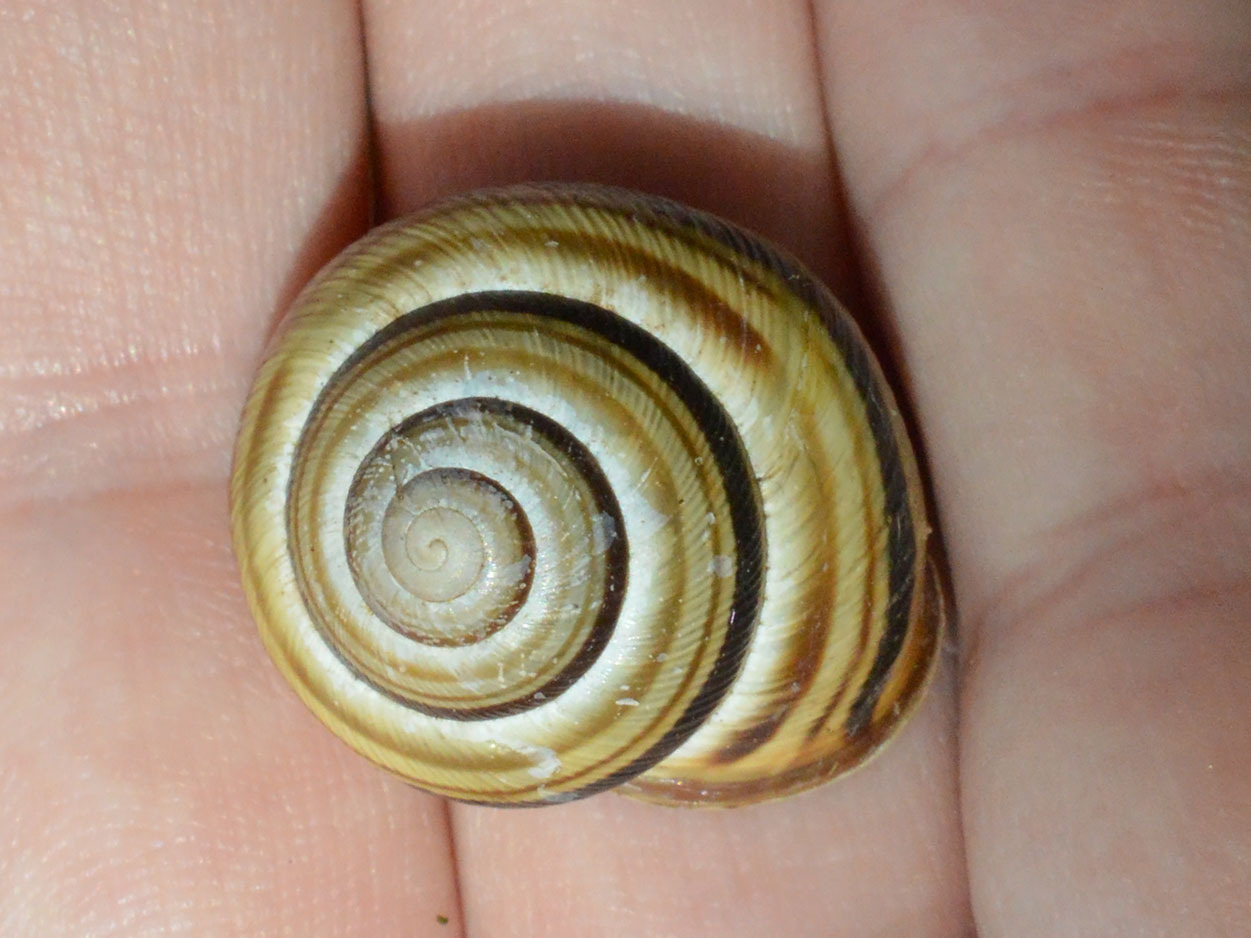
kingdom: Animalia
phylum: Mollusca
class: Gastropoda
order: Stylommatophora
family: Helicidae
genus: Caucasotachea
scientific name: Caucasotachea vindobonensis
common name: European helicid land snail
